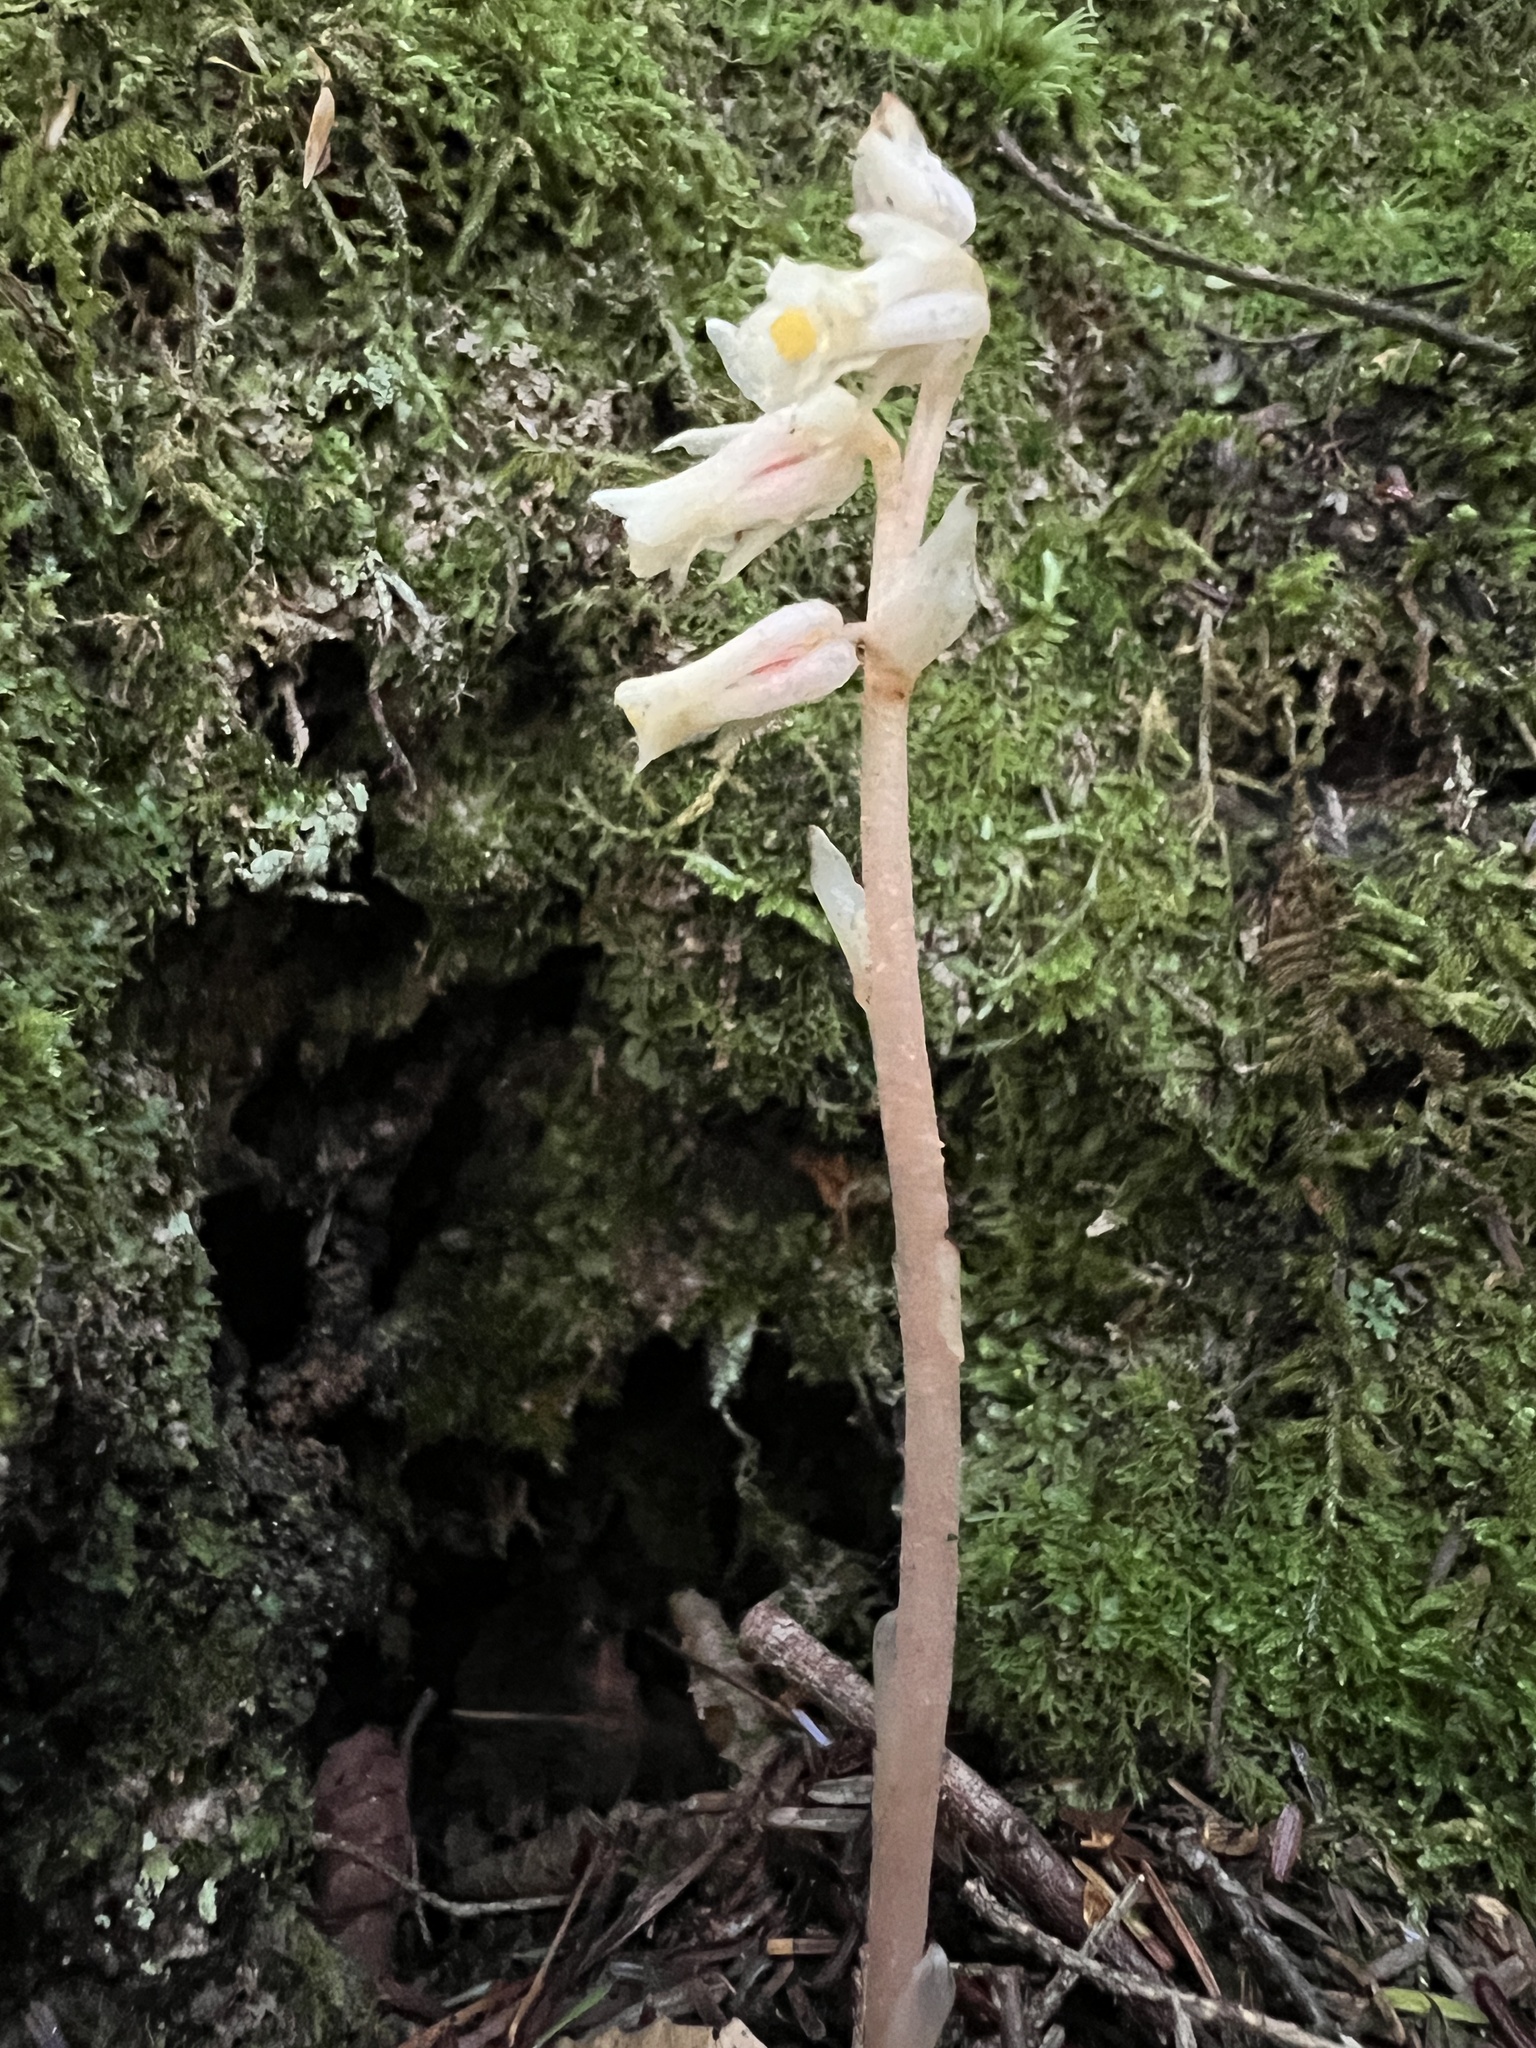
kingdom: Plantae
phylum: Tracheophyta
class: Magnoliopsida
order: Ericales
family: Ericaceae
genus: Hypopitys
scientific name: Hypopitys monotropa
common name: Yellow bird's-nest
